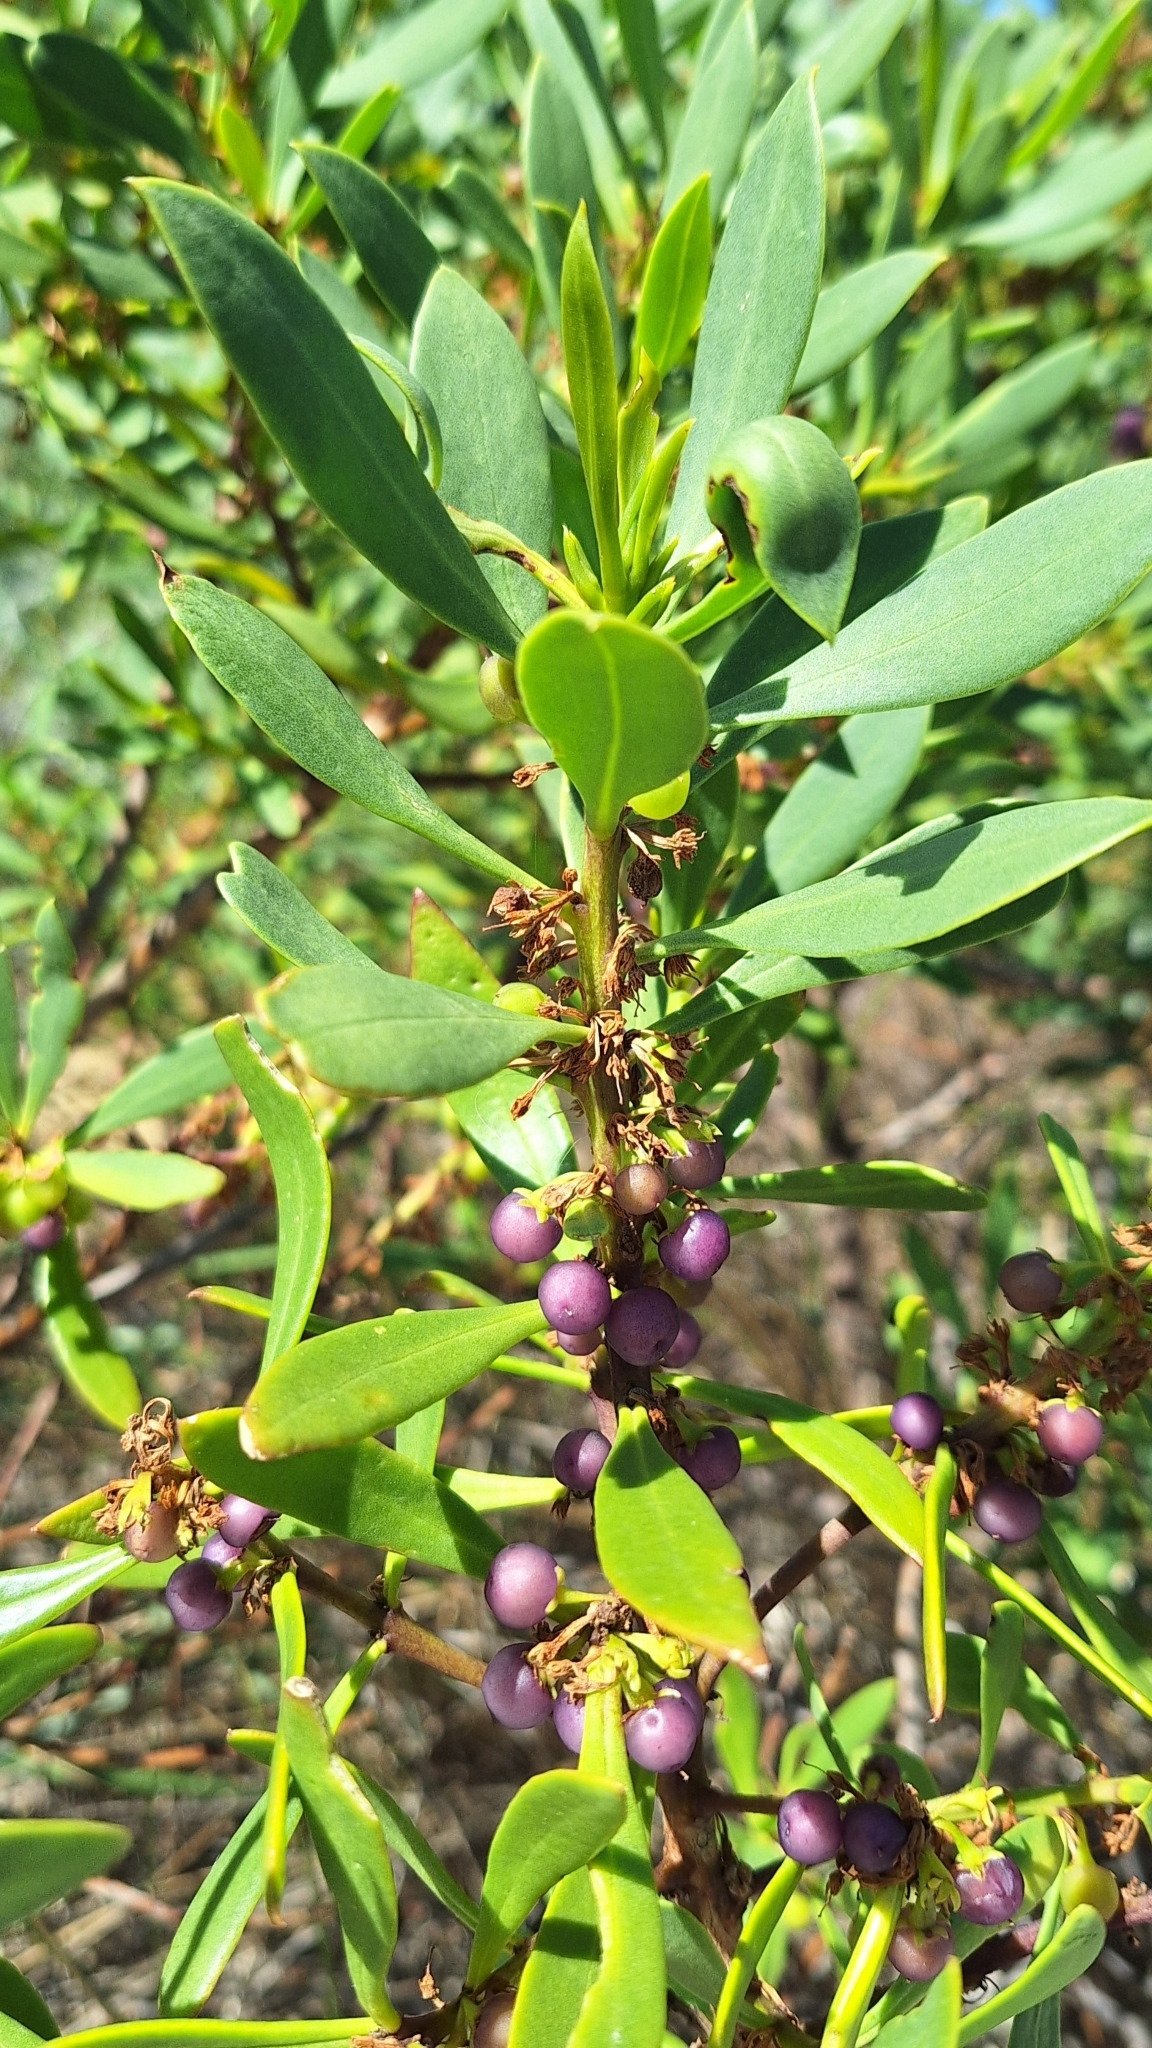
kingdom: Plantae
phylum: Tracheophyta
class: Magnoliopsida
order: Lamiales
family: Scrophulariaceae
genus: Myoporum
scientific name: Myoporum insulare
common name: Common boobialla
